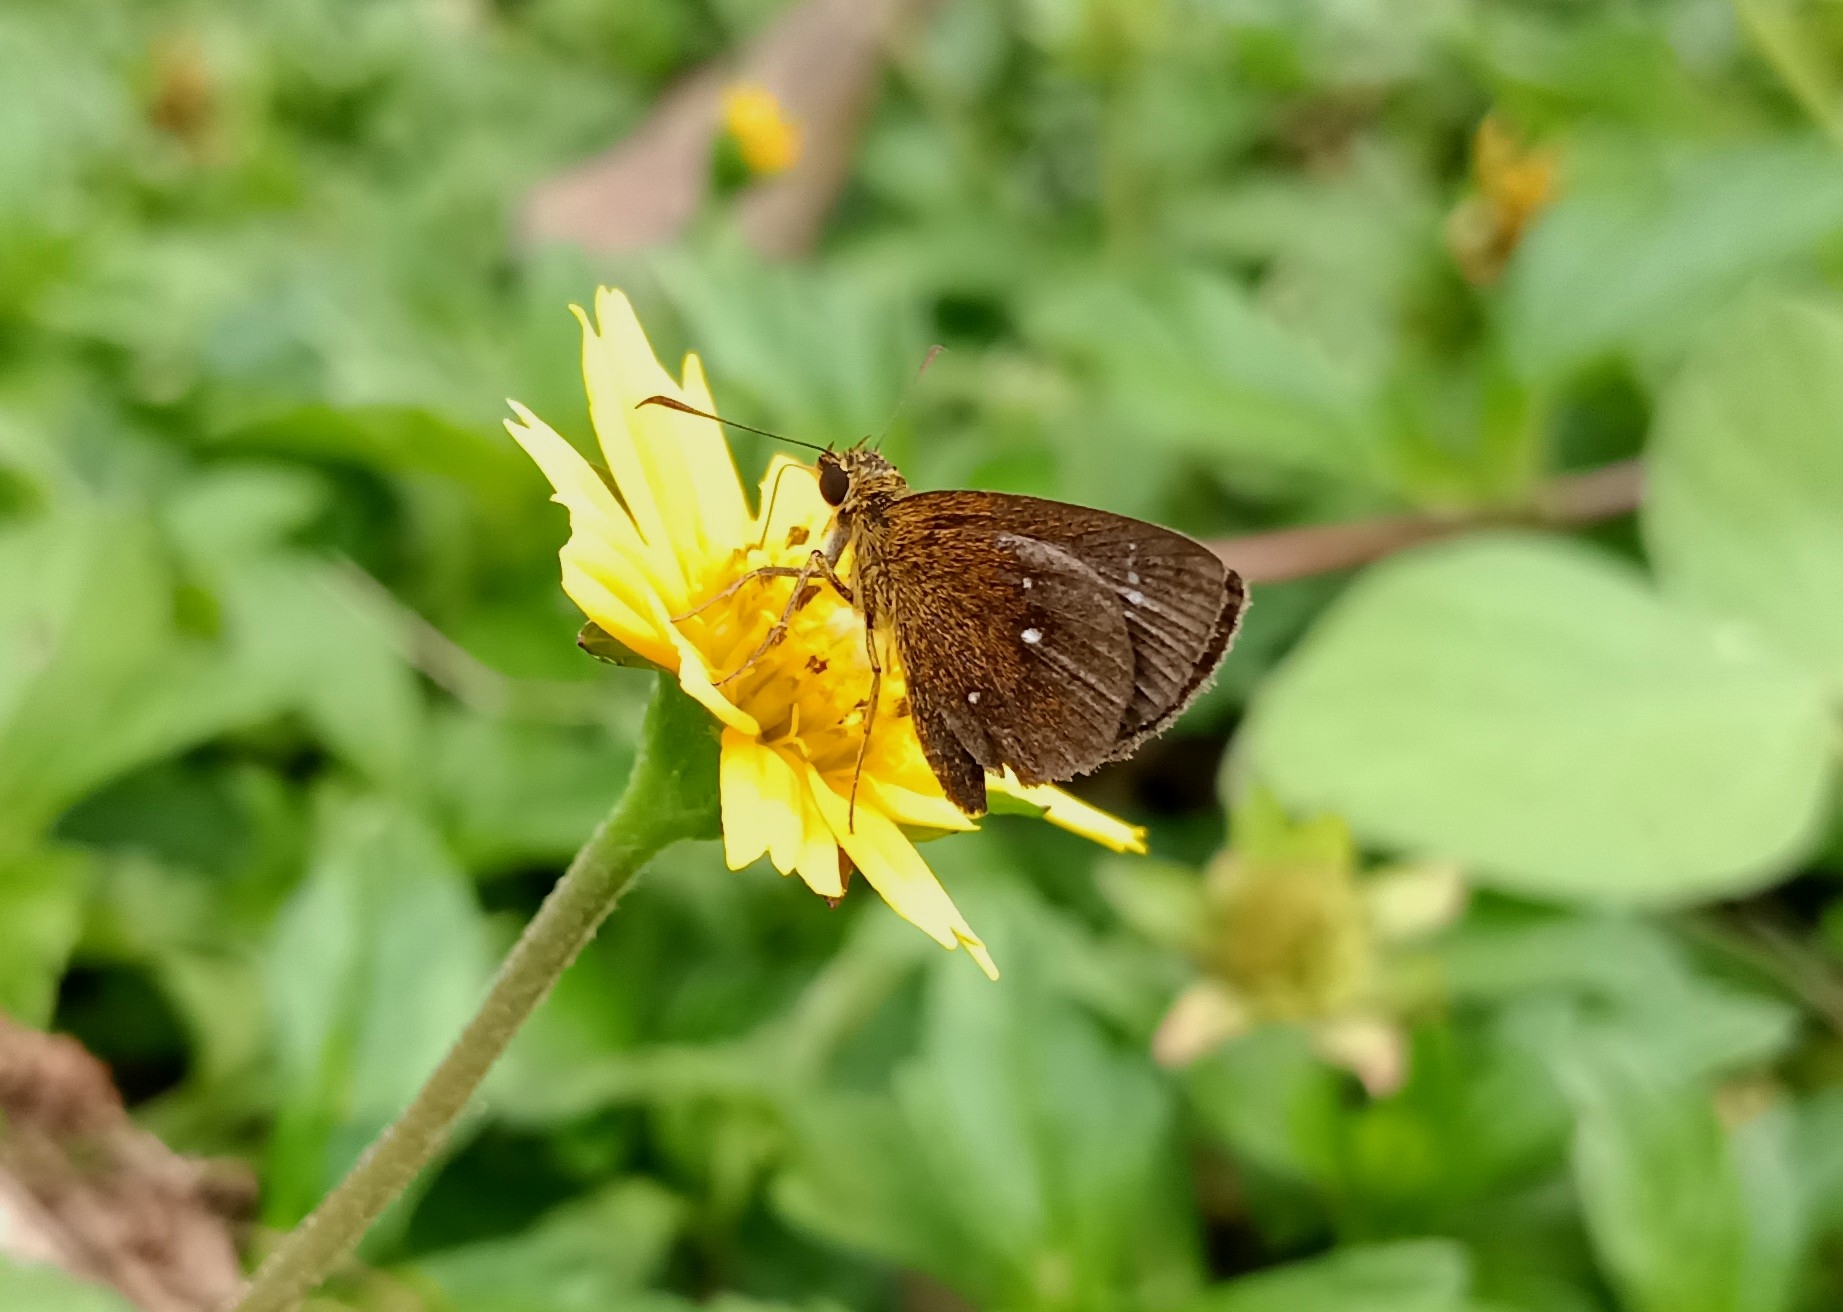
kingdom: Animalia
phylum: Arthropoda
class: Insecta
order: Lepidoptera
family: Hesperiidae
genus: Iambrix
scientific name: Iambrix salsala
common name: Chestnut bob
